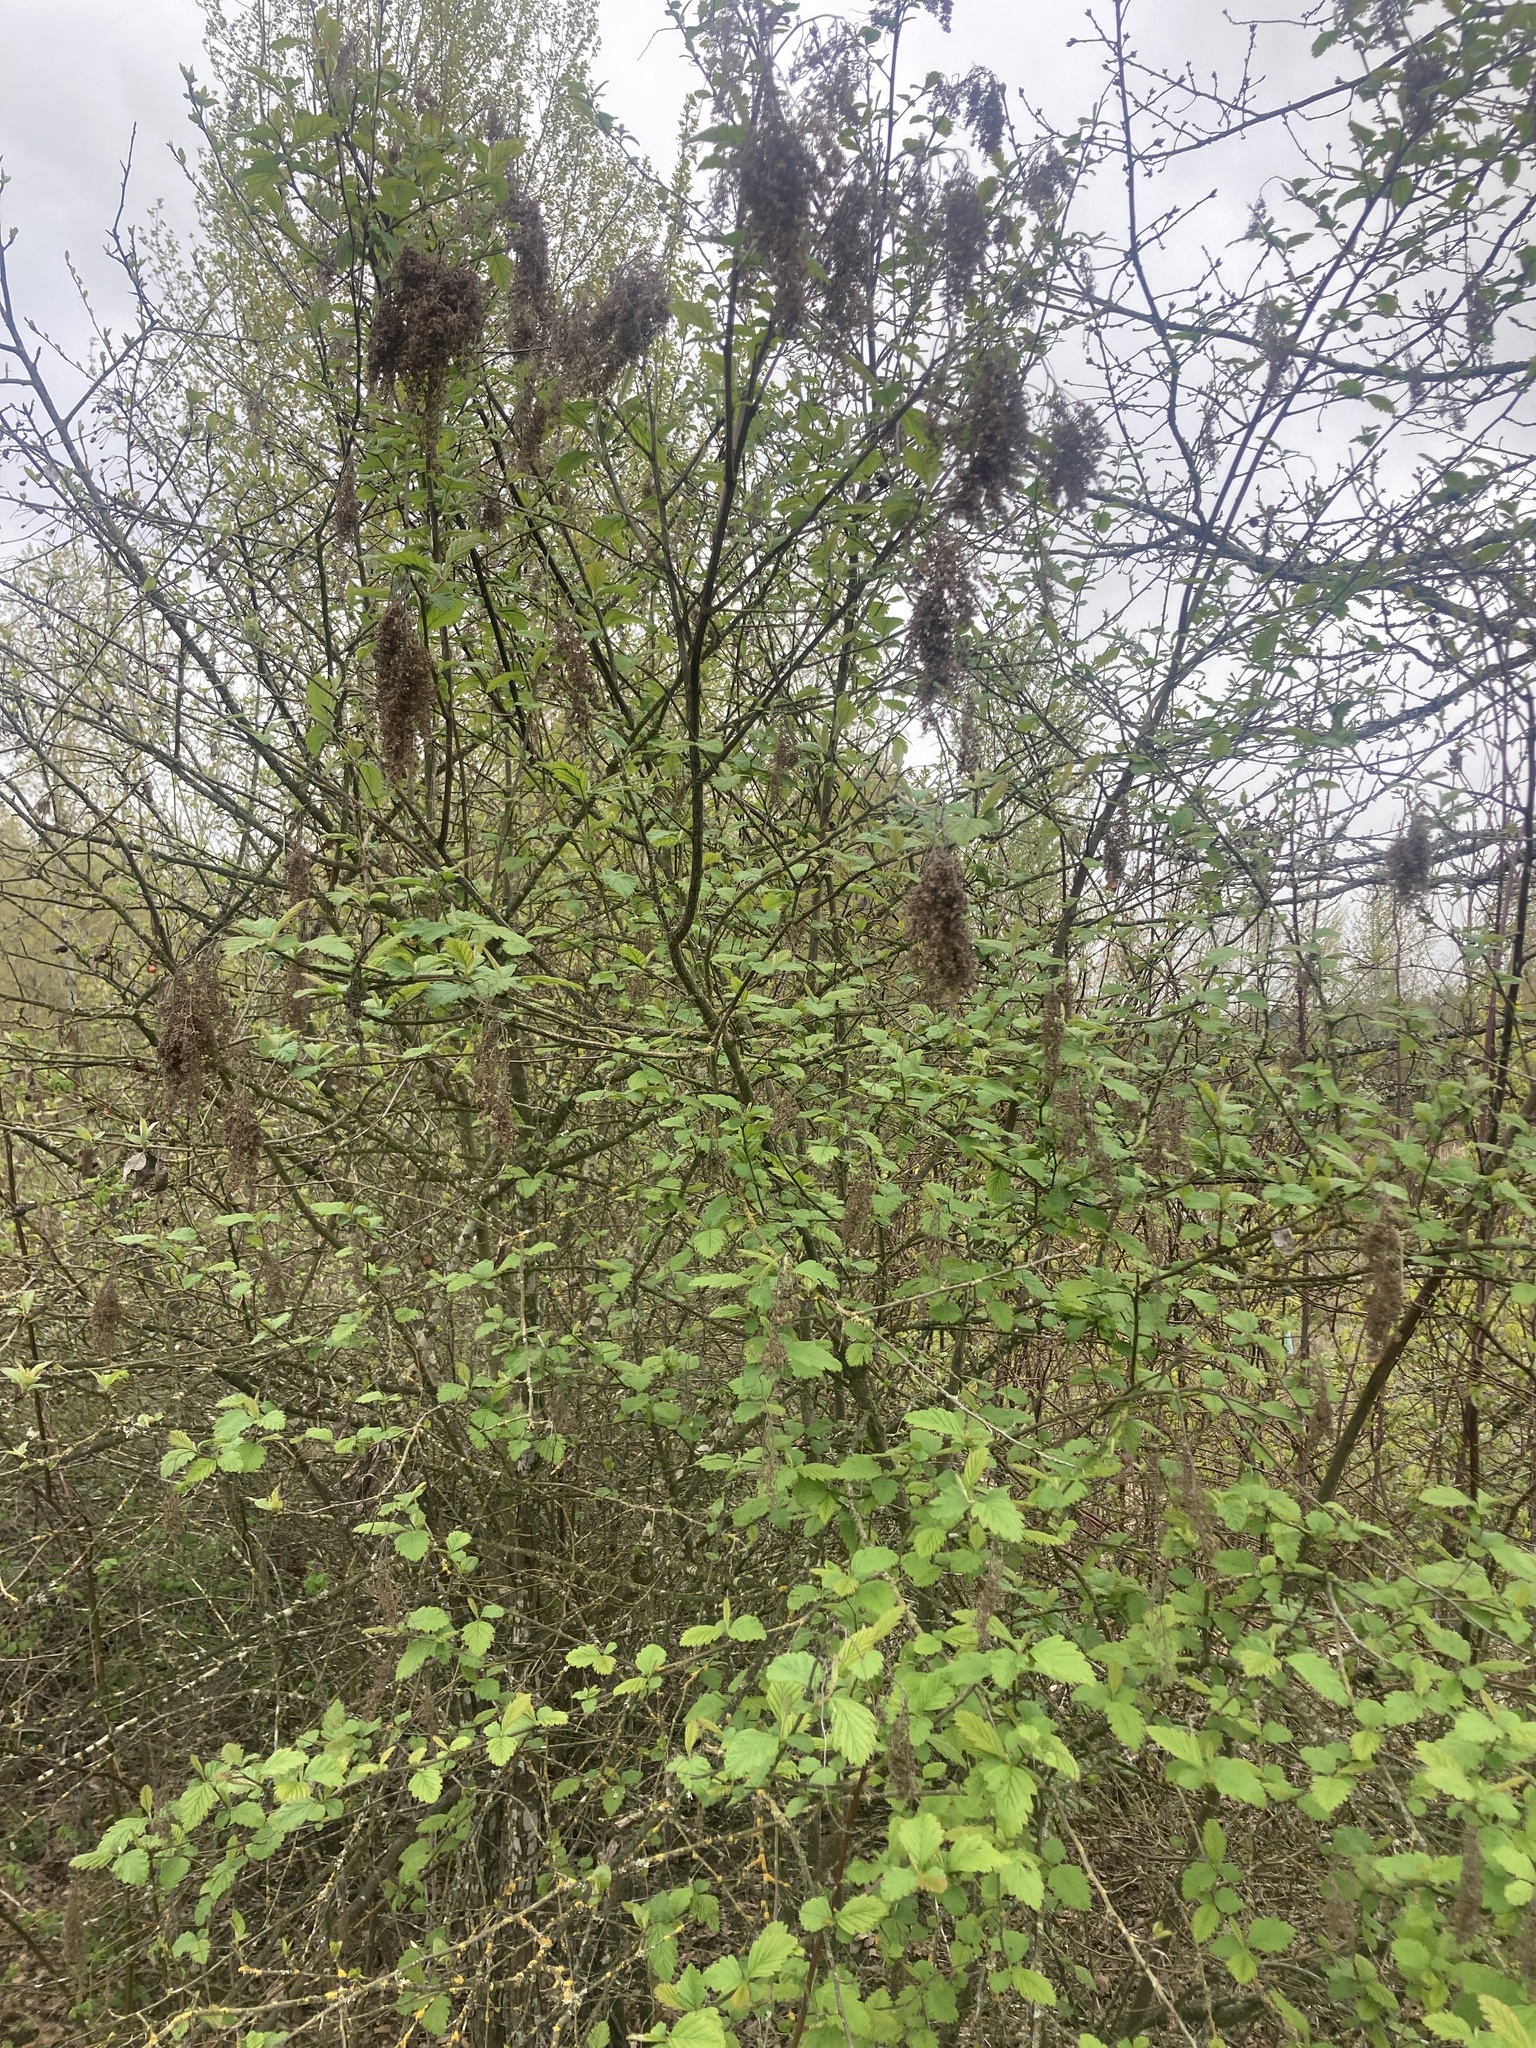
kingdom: Plantae
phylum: Tracheophyta
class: Magnoliopsida
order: Rosales
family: Rosaceae
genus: Holodiscus
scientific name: Holodiscus discolor
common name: Oceanspray
